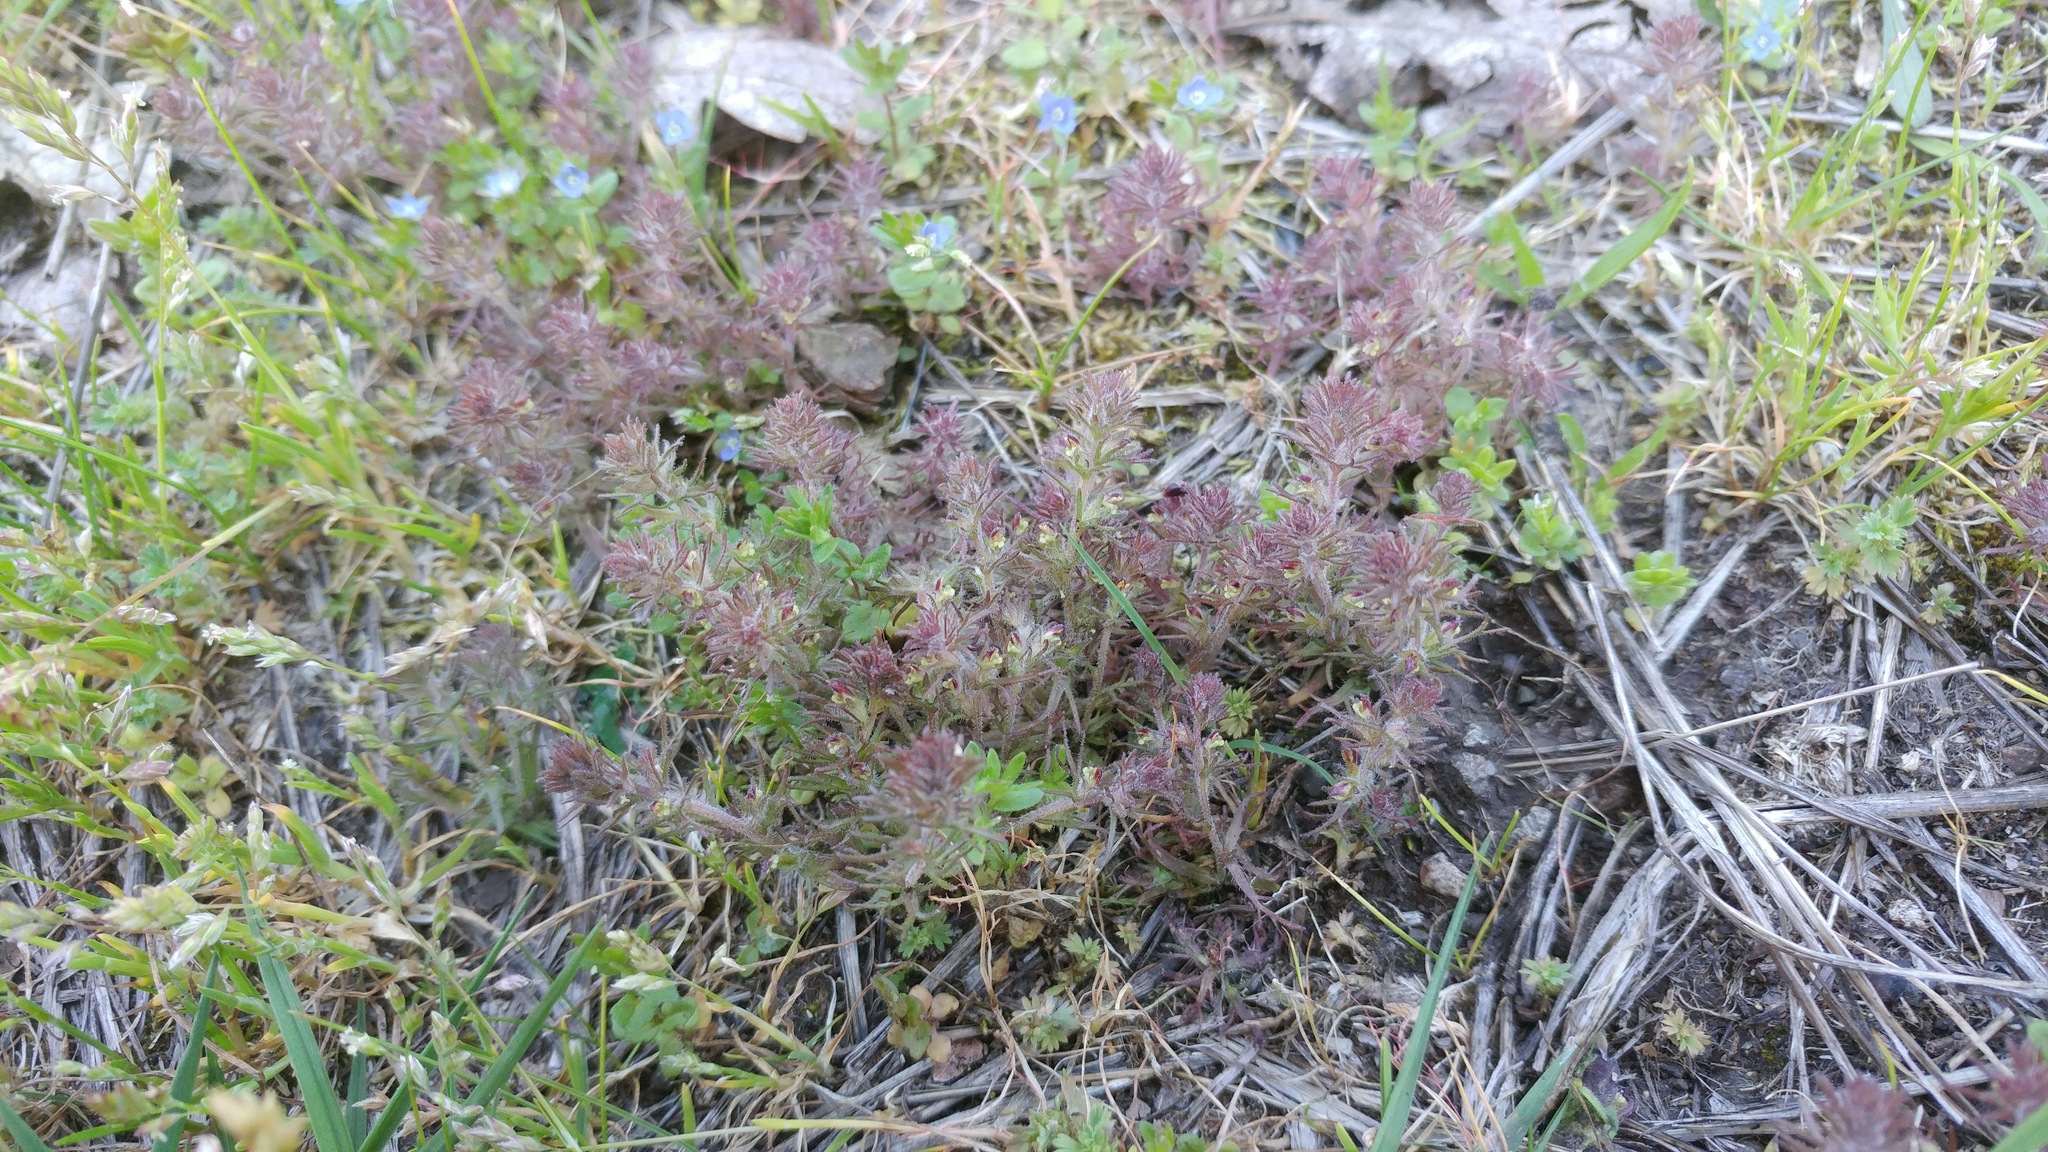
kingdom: Plantae
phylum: Tracheophyta
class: Magnoliopsida
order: Lamiales
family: Orobanchaceae
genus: Triphysaria
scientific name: Triphysaria pusilla
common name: Dwarf false owl-clover
